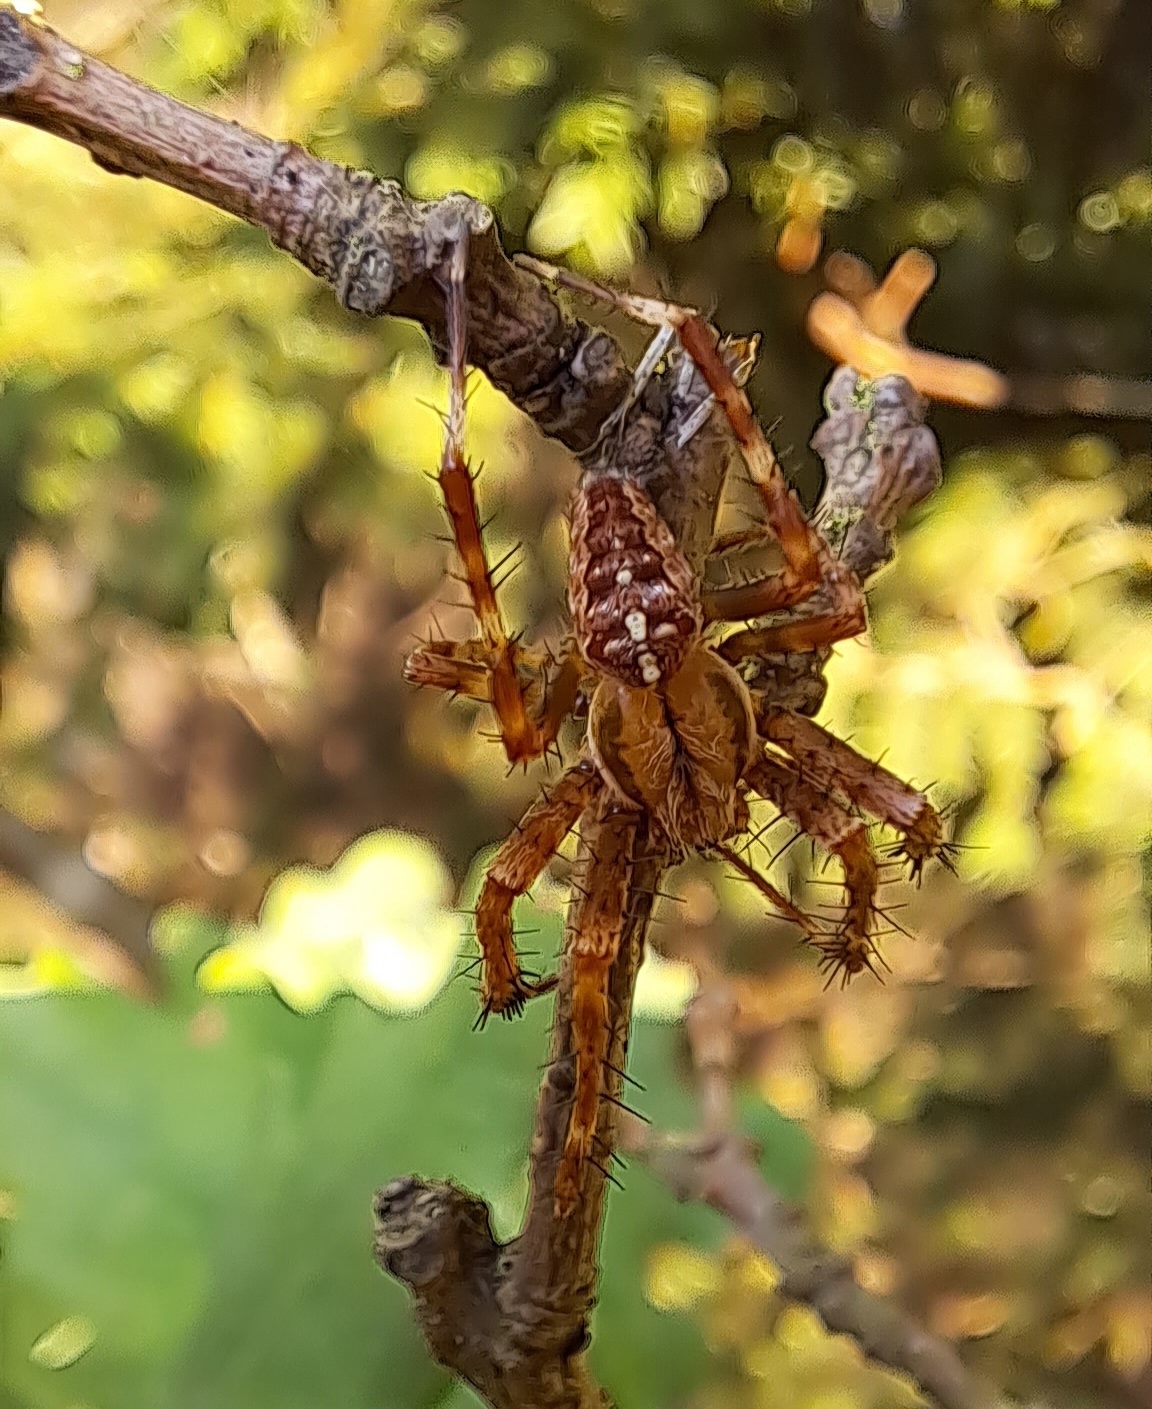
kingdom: Animalia
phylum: Arthropoda
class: Arachnida
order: Araneae
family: Araneidae
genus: Araneus
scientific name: Araneus diadematus
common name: Cross orbweaver
